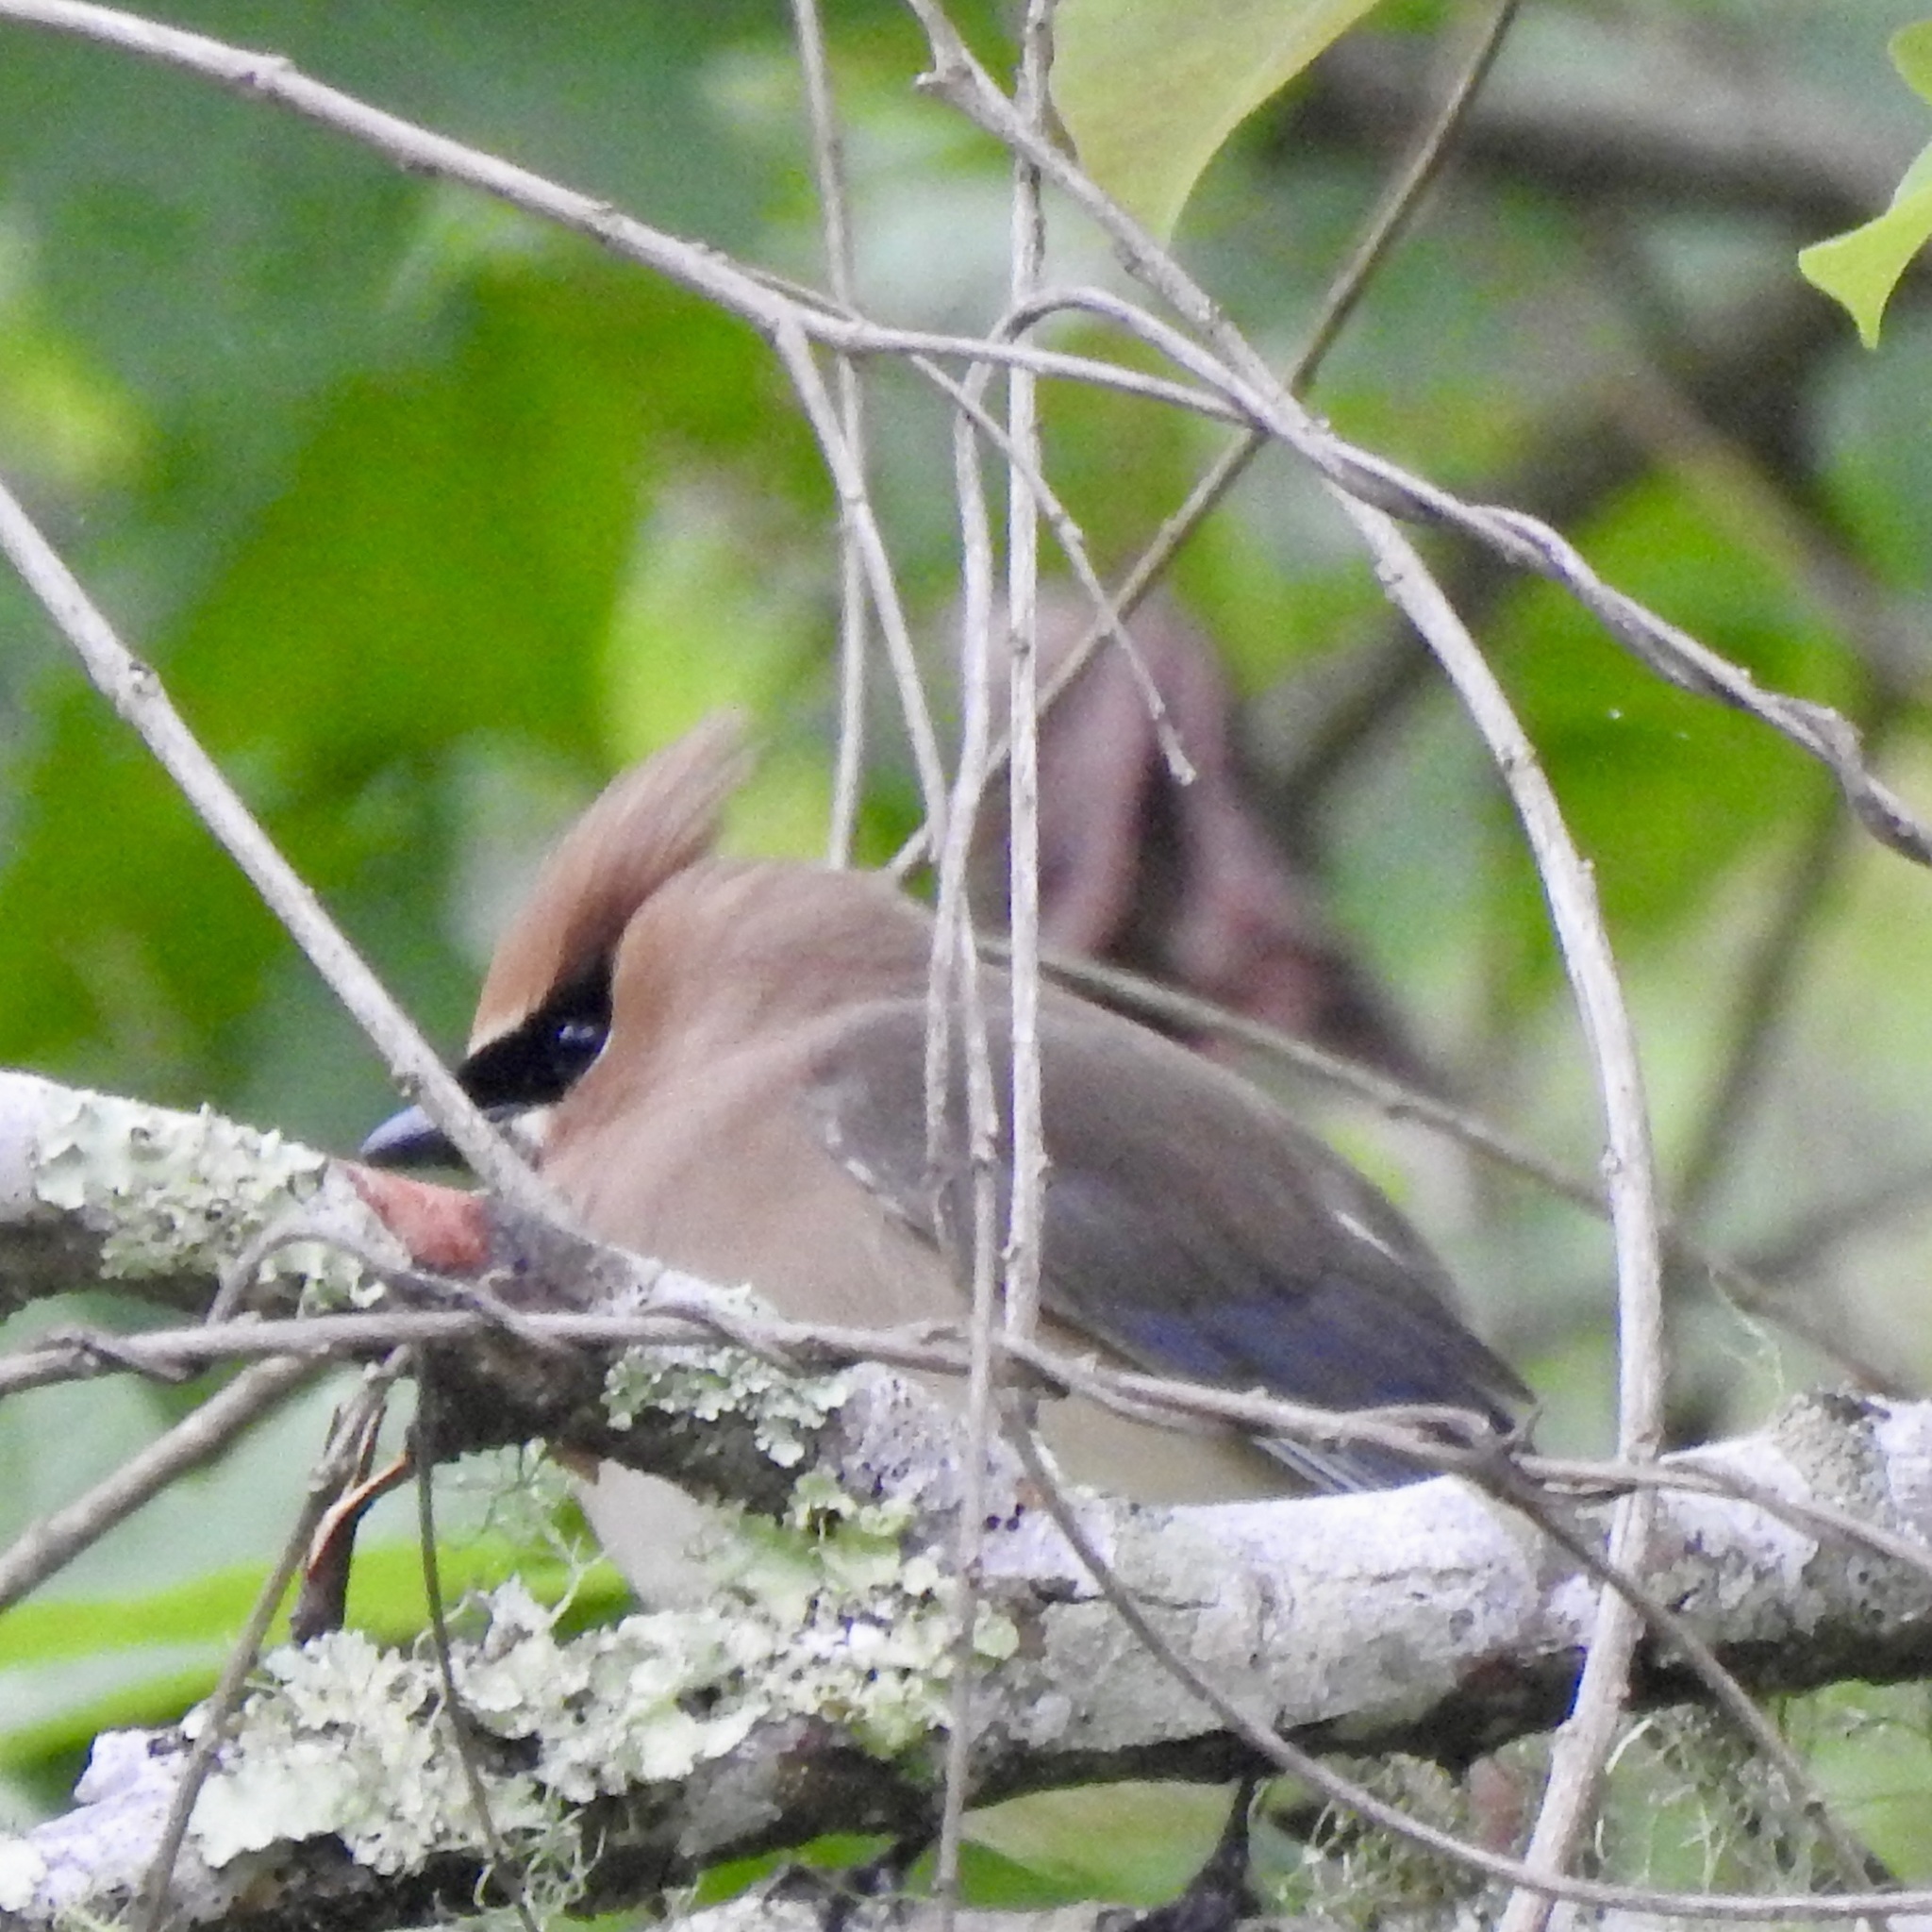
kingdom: Animalia
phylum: Chordata
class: Aves
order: Passeriformes
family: Bombycillidae
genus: Bombycilla
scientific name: Bombycilla cedrorum
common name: Cedar waxwing
